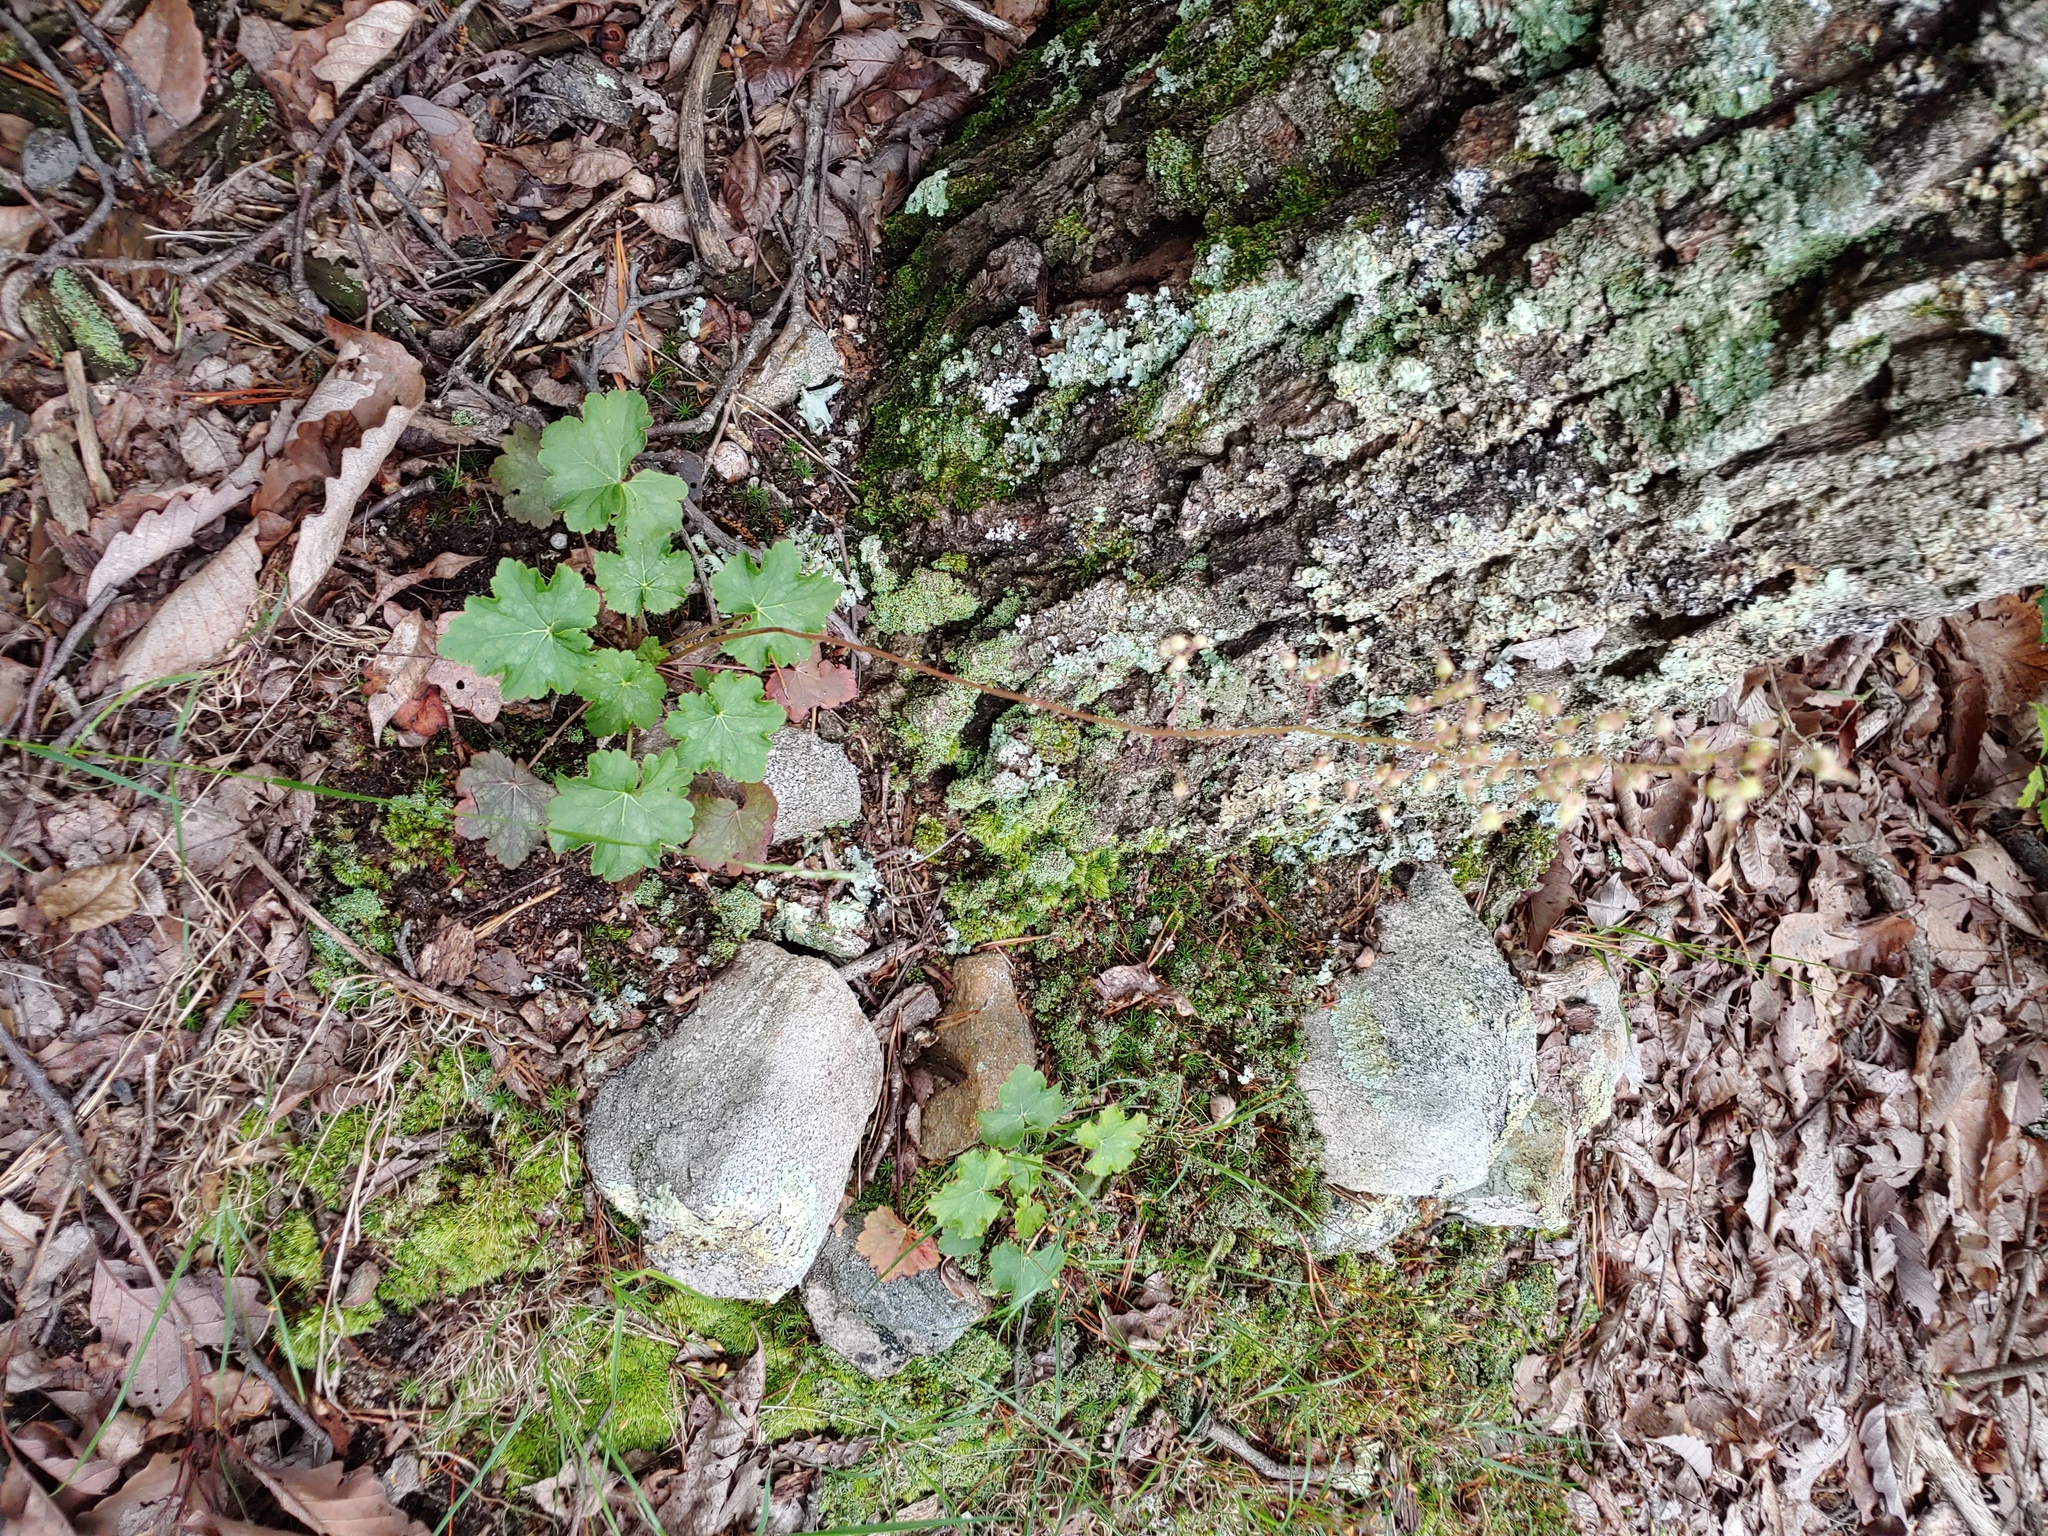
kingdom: Plantae
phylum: Tracheophyta
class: Magnoliopsida
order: Saxifragales
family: Saxifragaceae
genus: Heuchera
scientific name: Heuchera americana
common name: Alumroot
